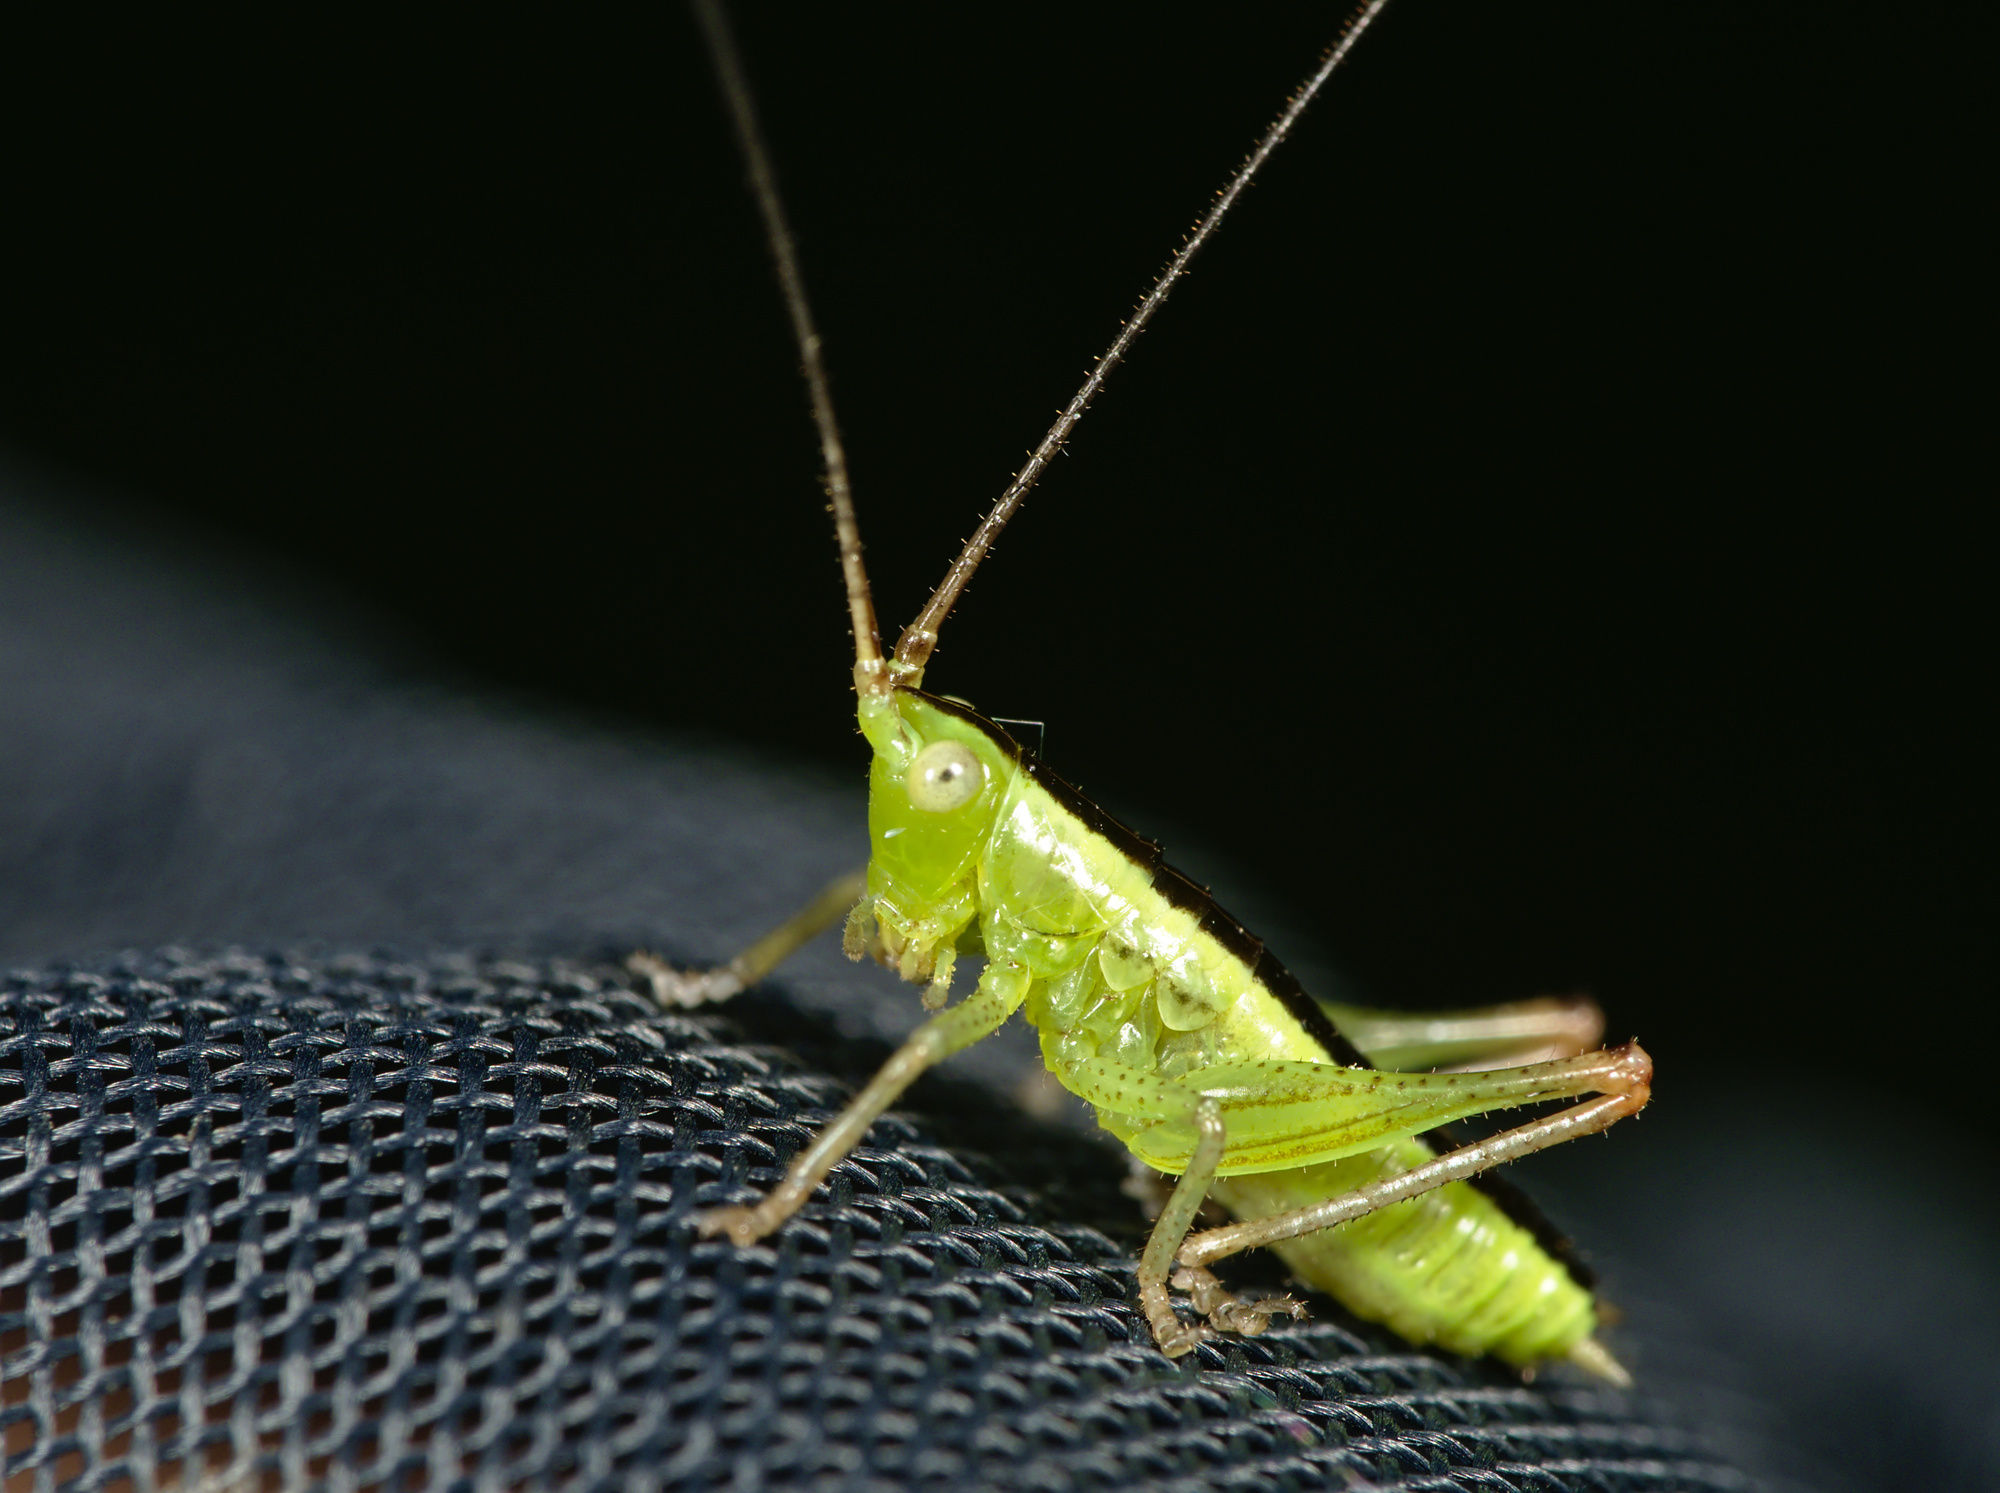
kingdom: Animalia
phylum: Arthropoda
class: Insecta
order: Orthoptera
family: Tettigoniidae
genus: Conocephalus
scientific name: Conocephalus fuscus
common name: Long-winged conehead
